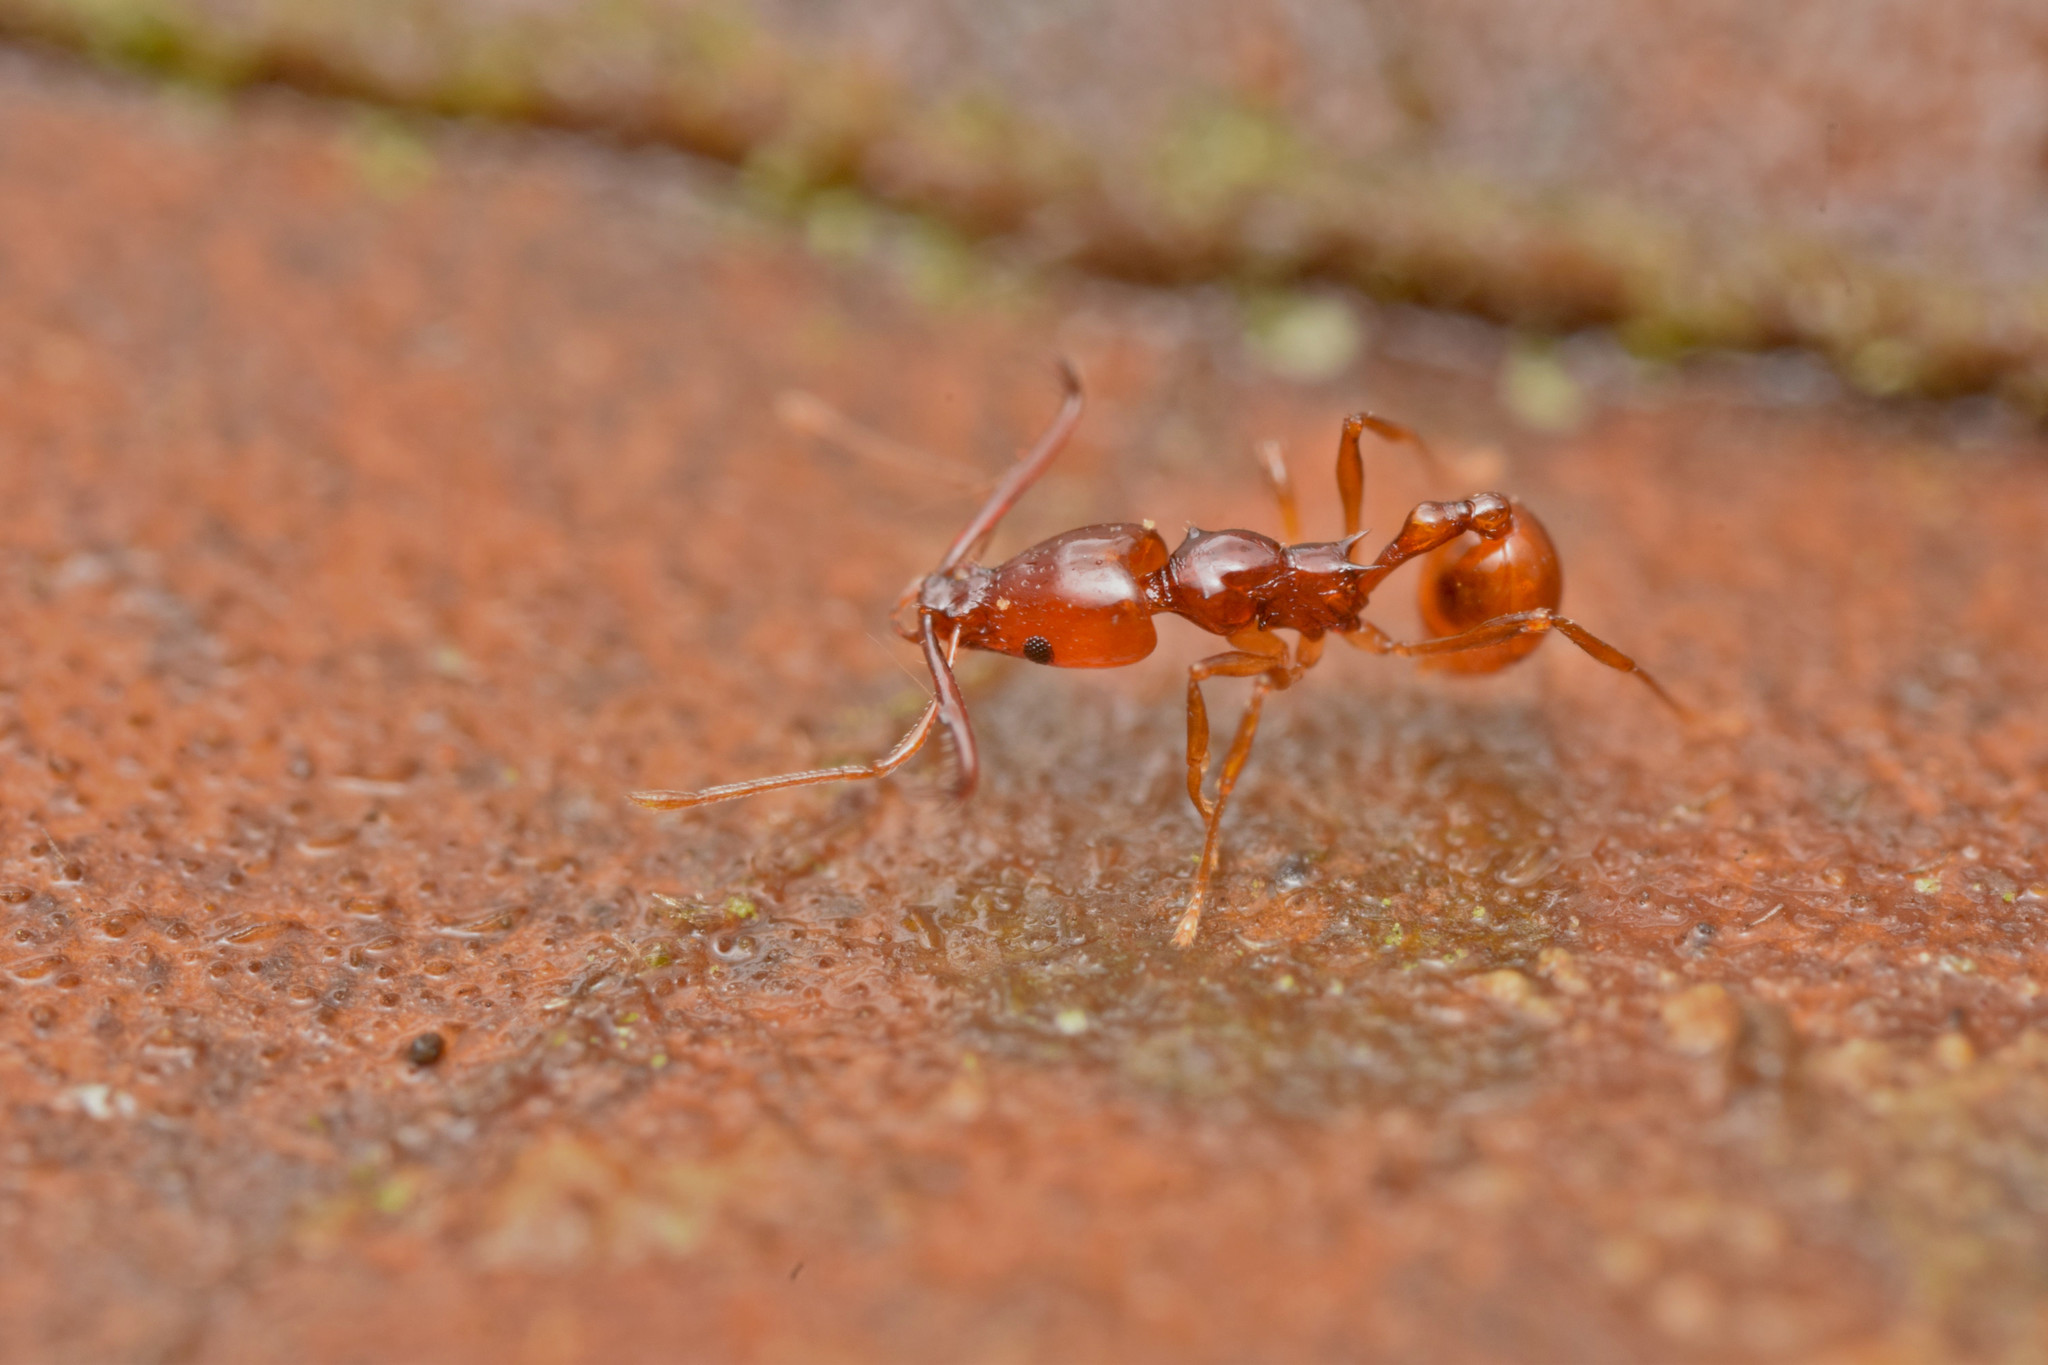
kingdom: Animalia
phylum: Arthropoda
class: Insecta
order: Hymenoptera
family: Formicidae
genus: Acanthognathus
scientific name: Acanthognathus teledectus
